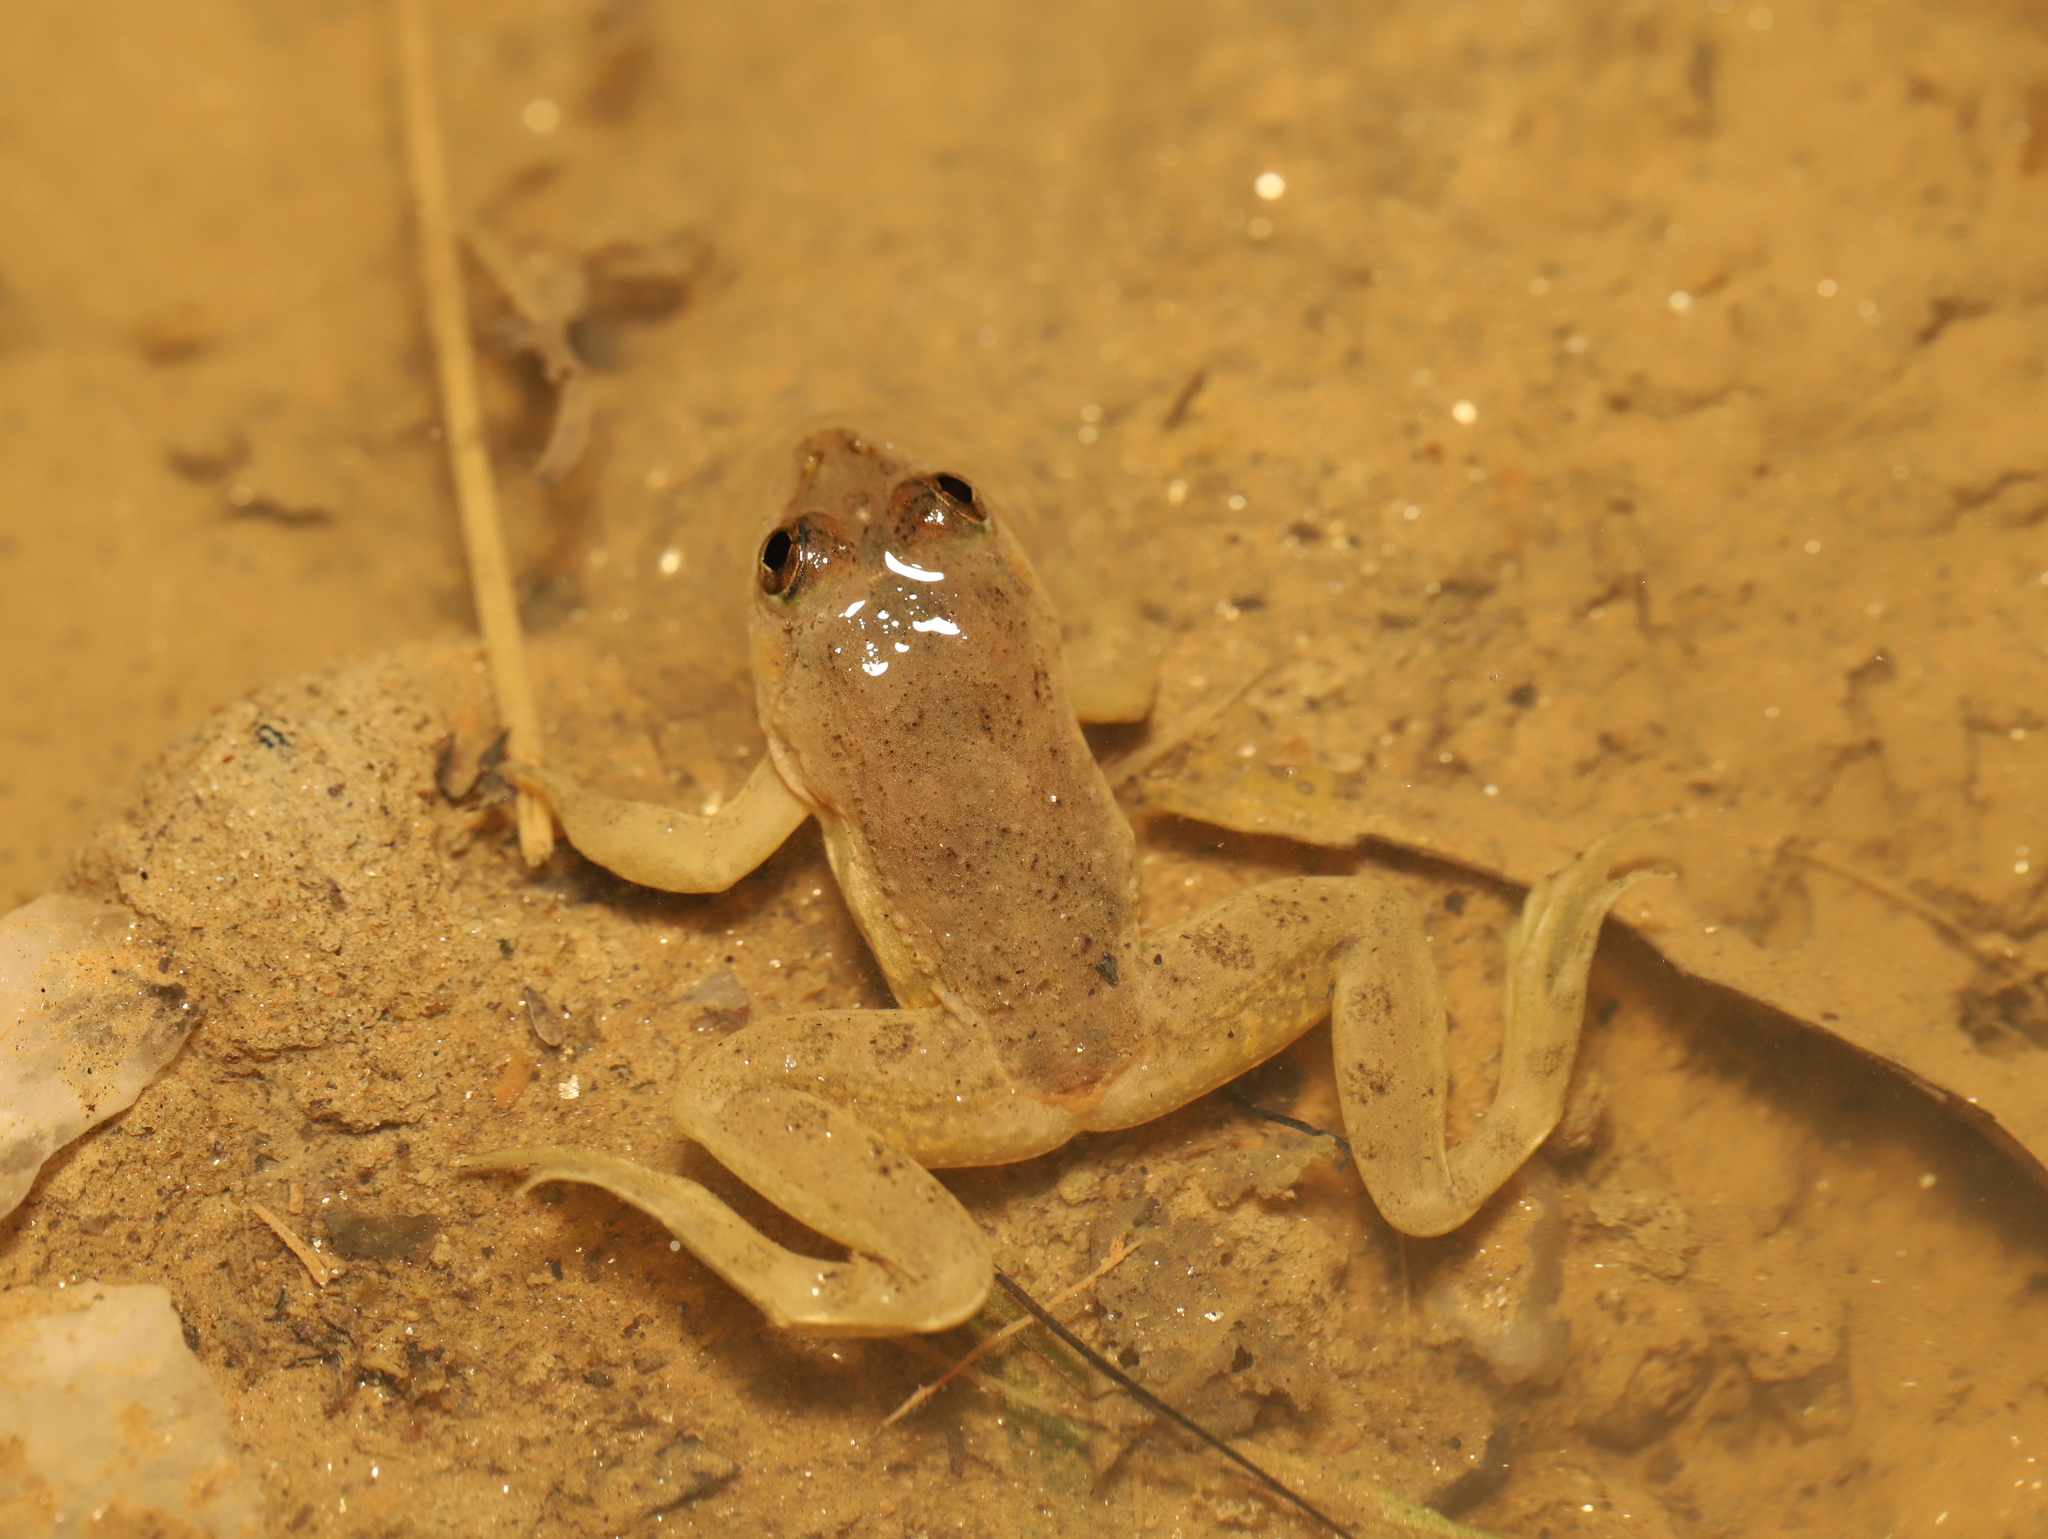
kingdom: Animalia
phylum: Chordata
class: Amphibia
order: Anura
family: Dicroglossidae
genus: Euphlyctis
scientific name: Euphlyctis cyanophlyctis
